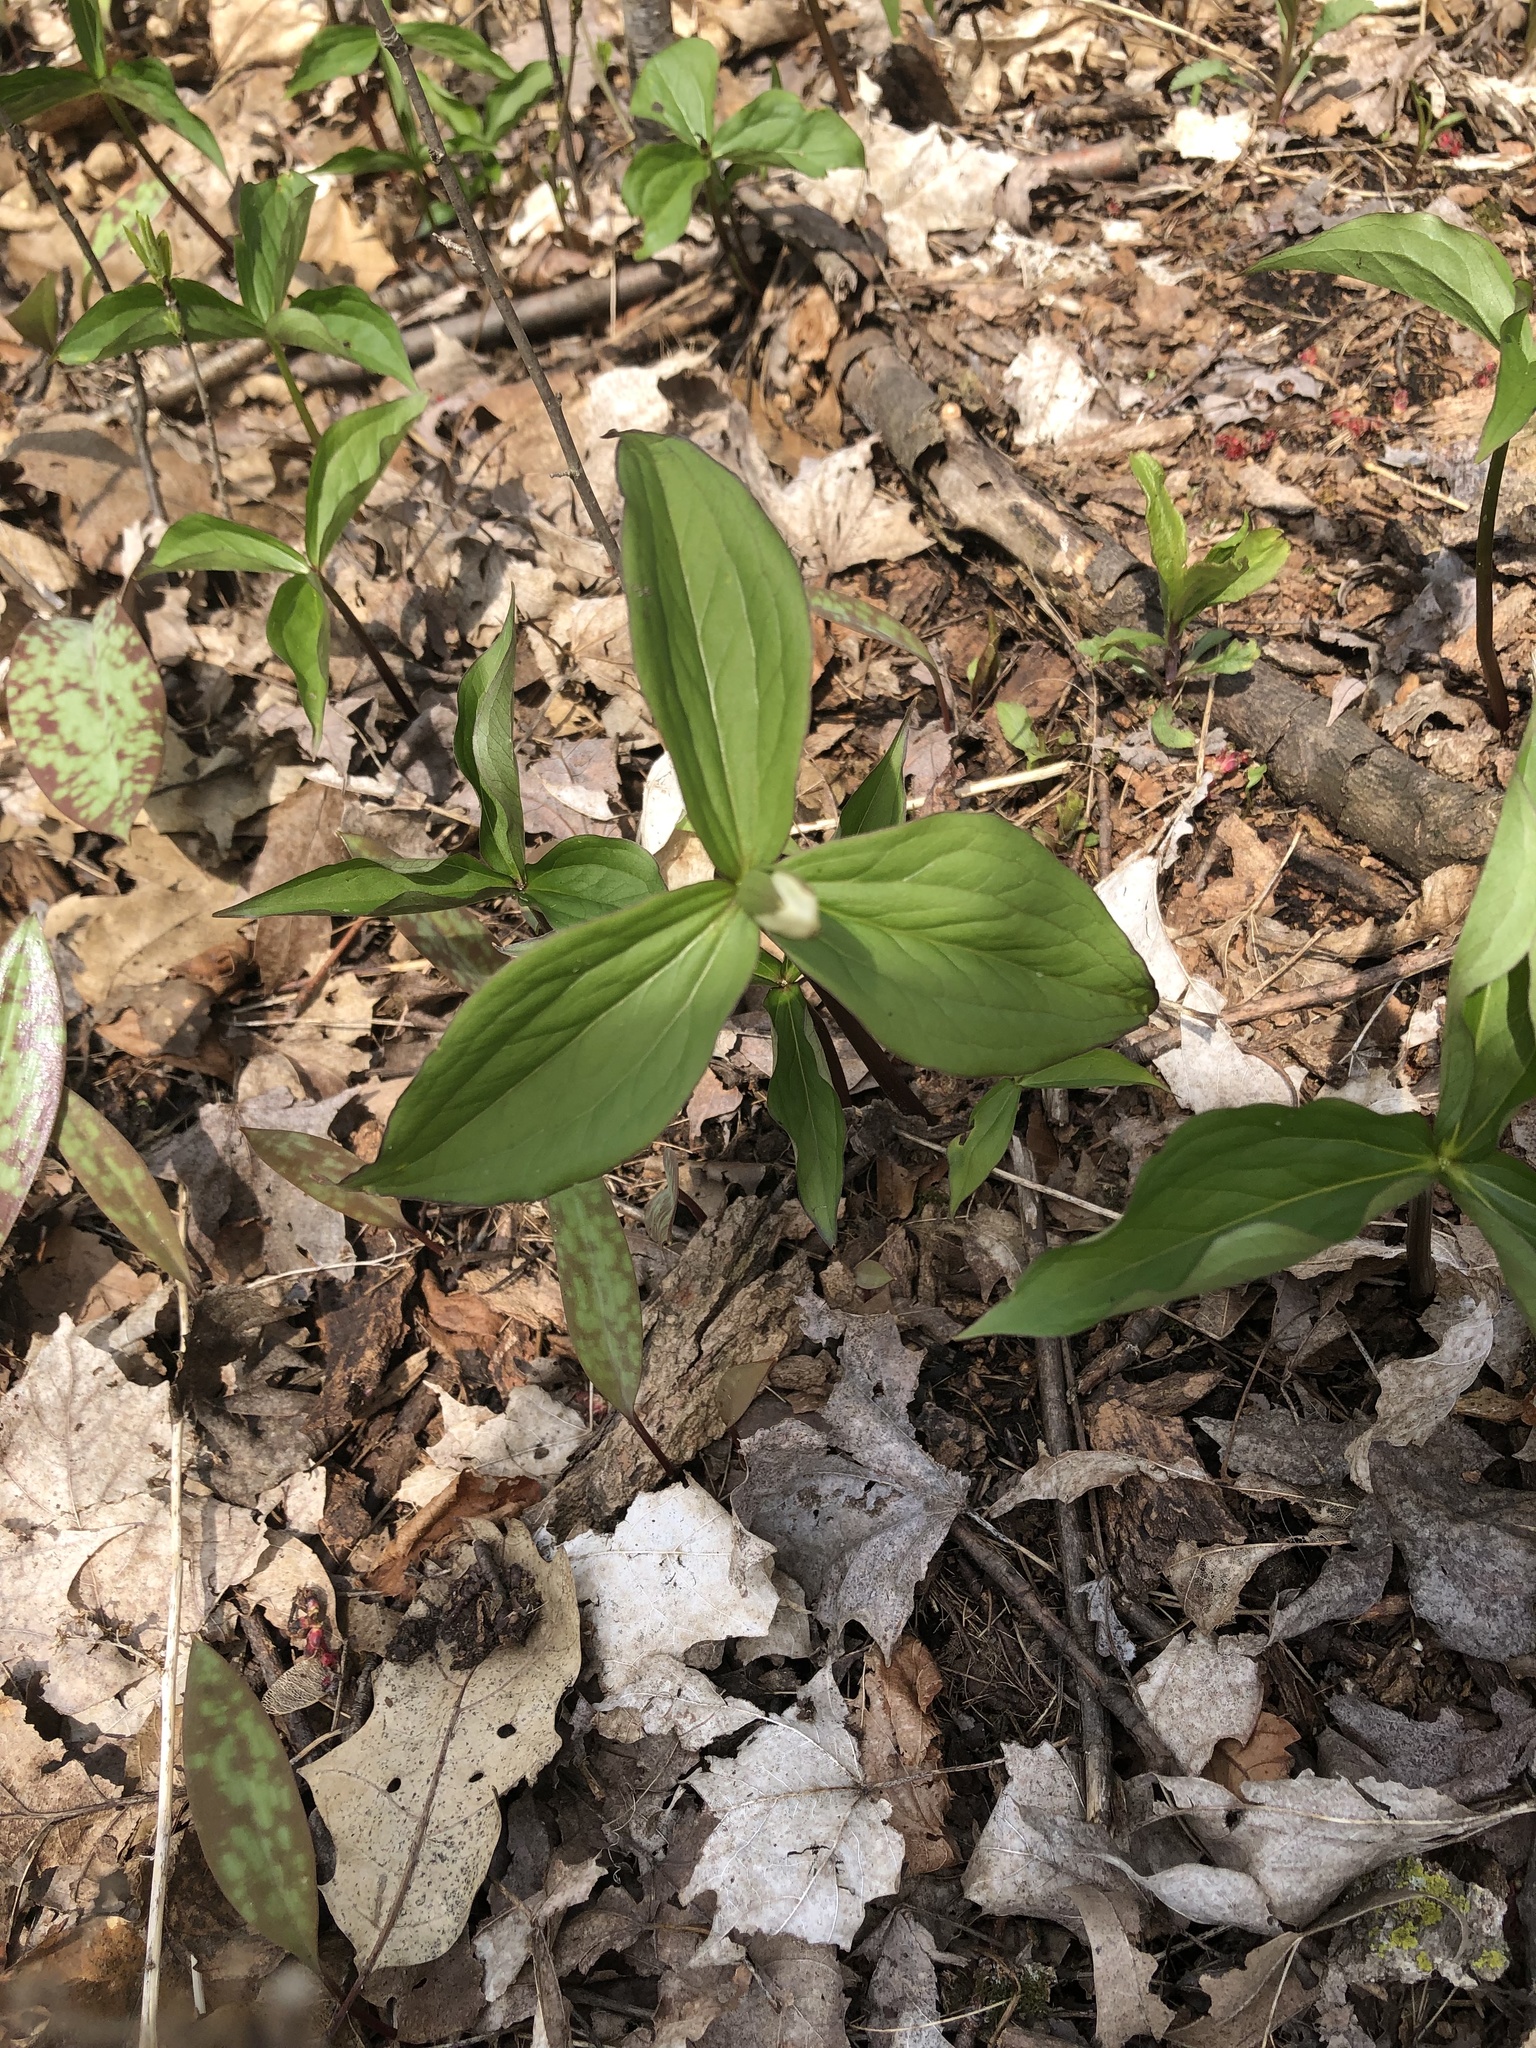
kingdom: Plantae
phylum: Tracheophyta
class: Liliopsida
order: Liliales
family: Melanthiaceae
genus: Trillium
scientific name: Trillium grandiflorum
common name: Great white trillium
